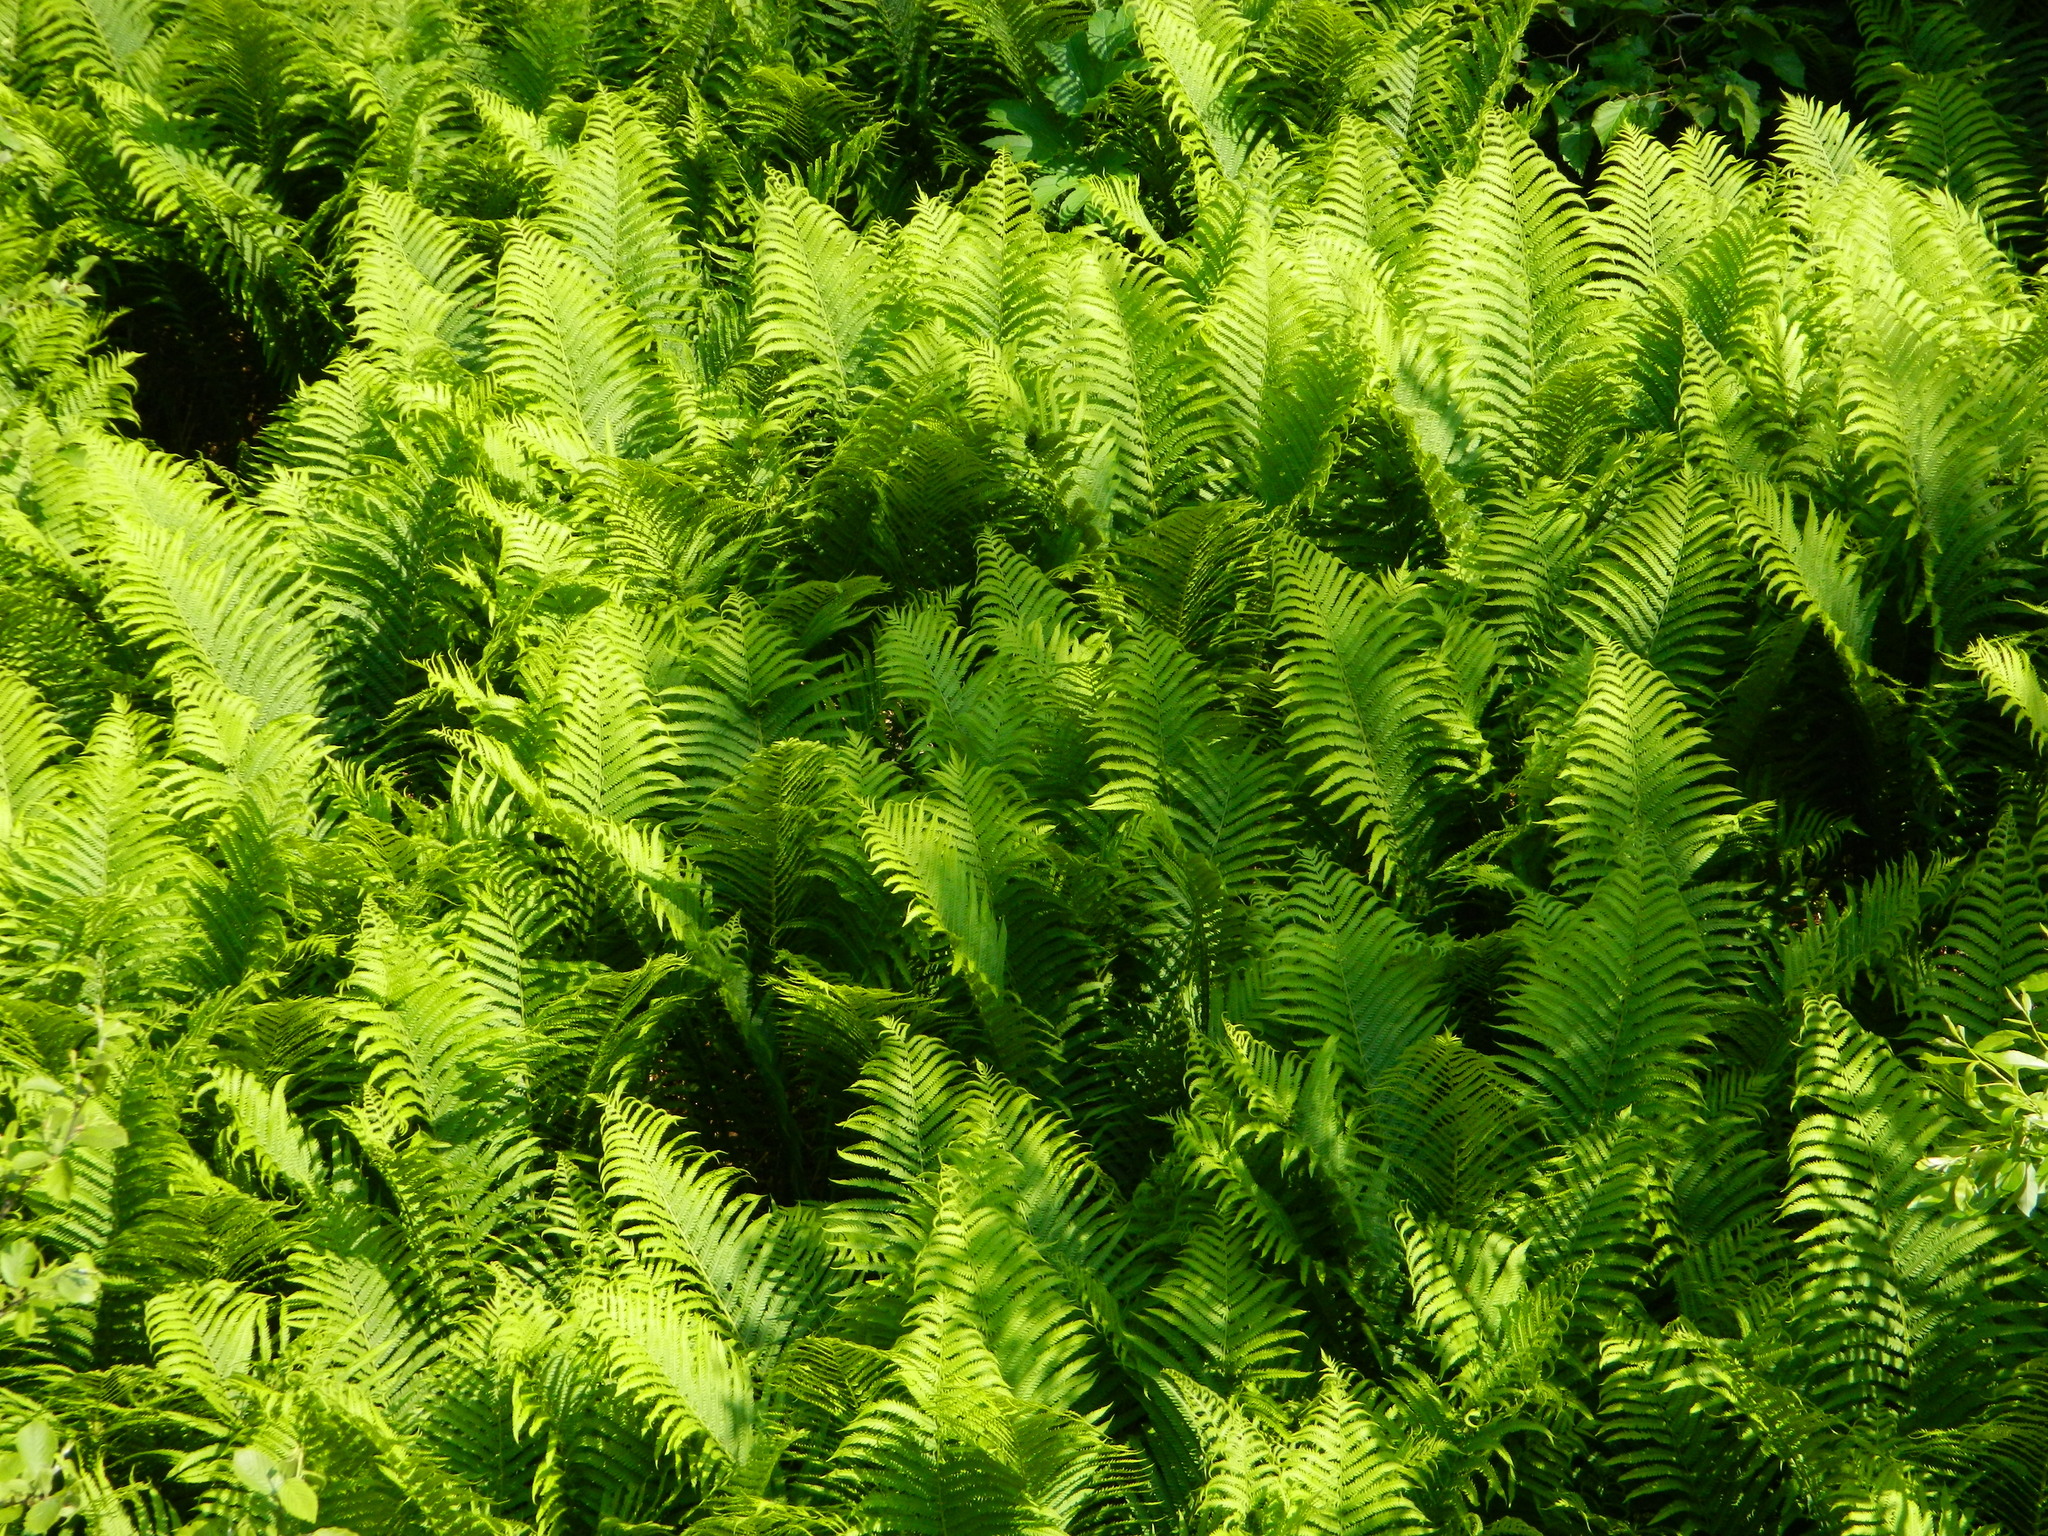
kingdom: Plantae
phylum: Tracheophyta
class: Polypodiopsida
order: Polypodiales
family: Onocleaceae
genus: Matteuccia
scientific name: Matteuccia struthiopteris
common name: Ostrich fern
